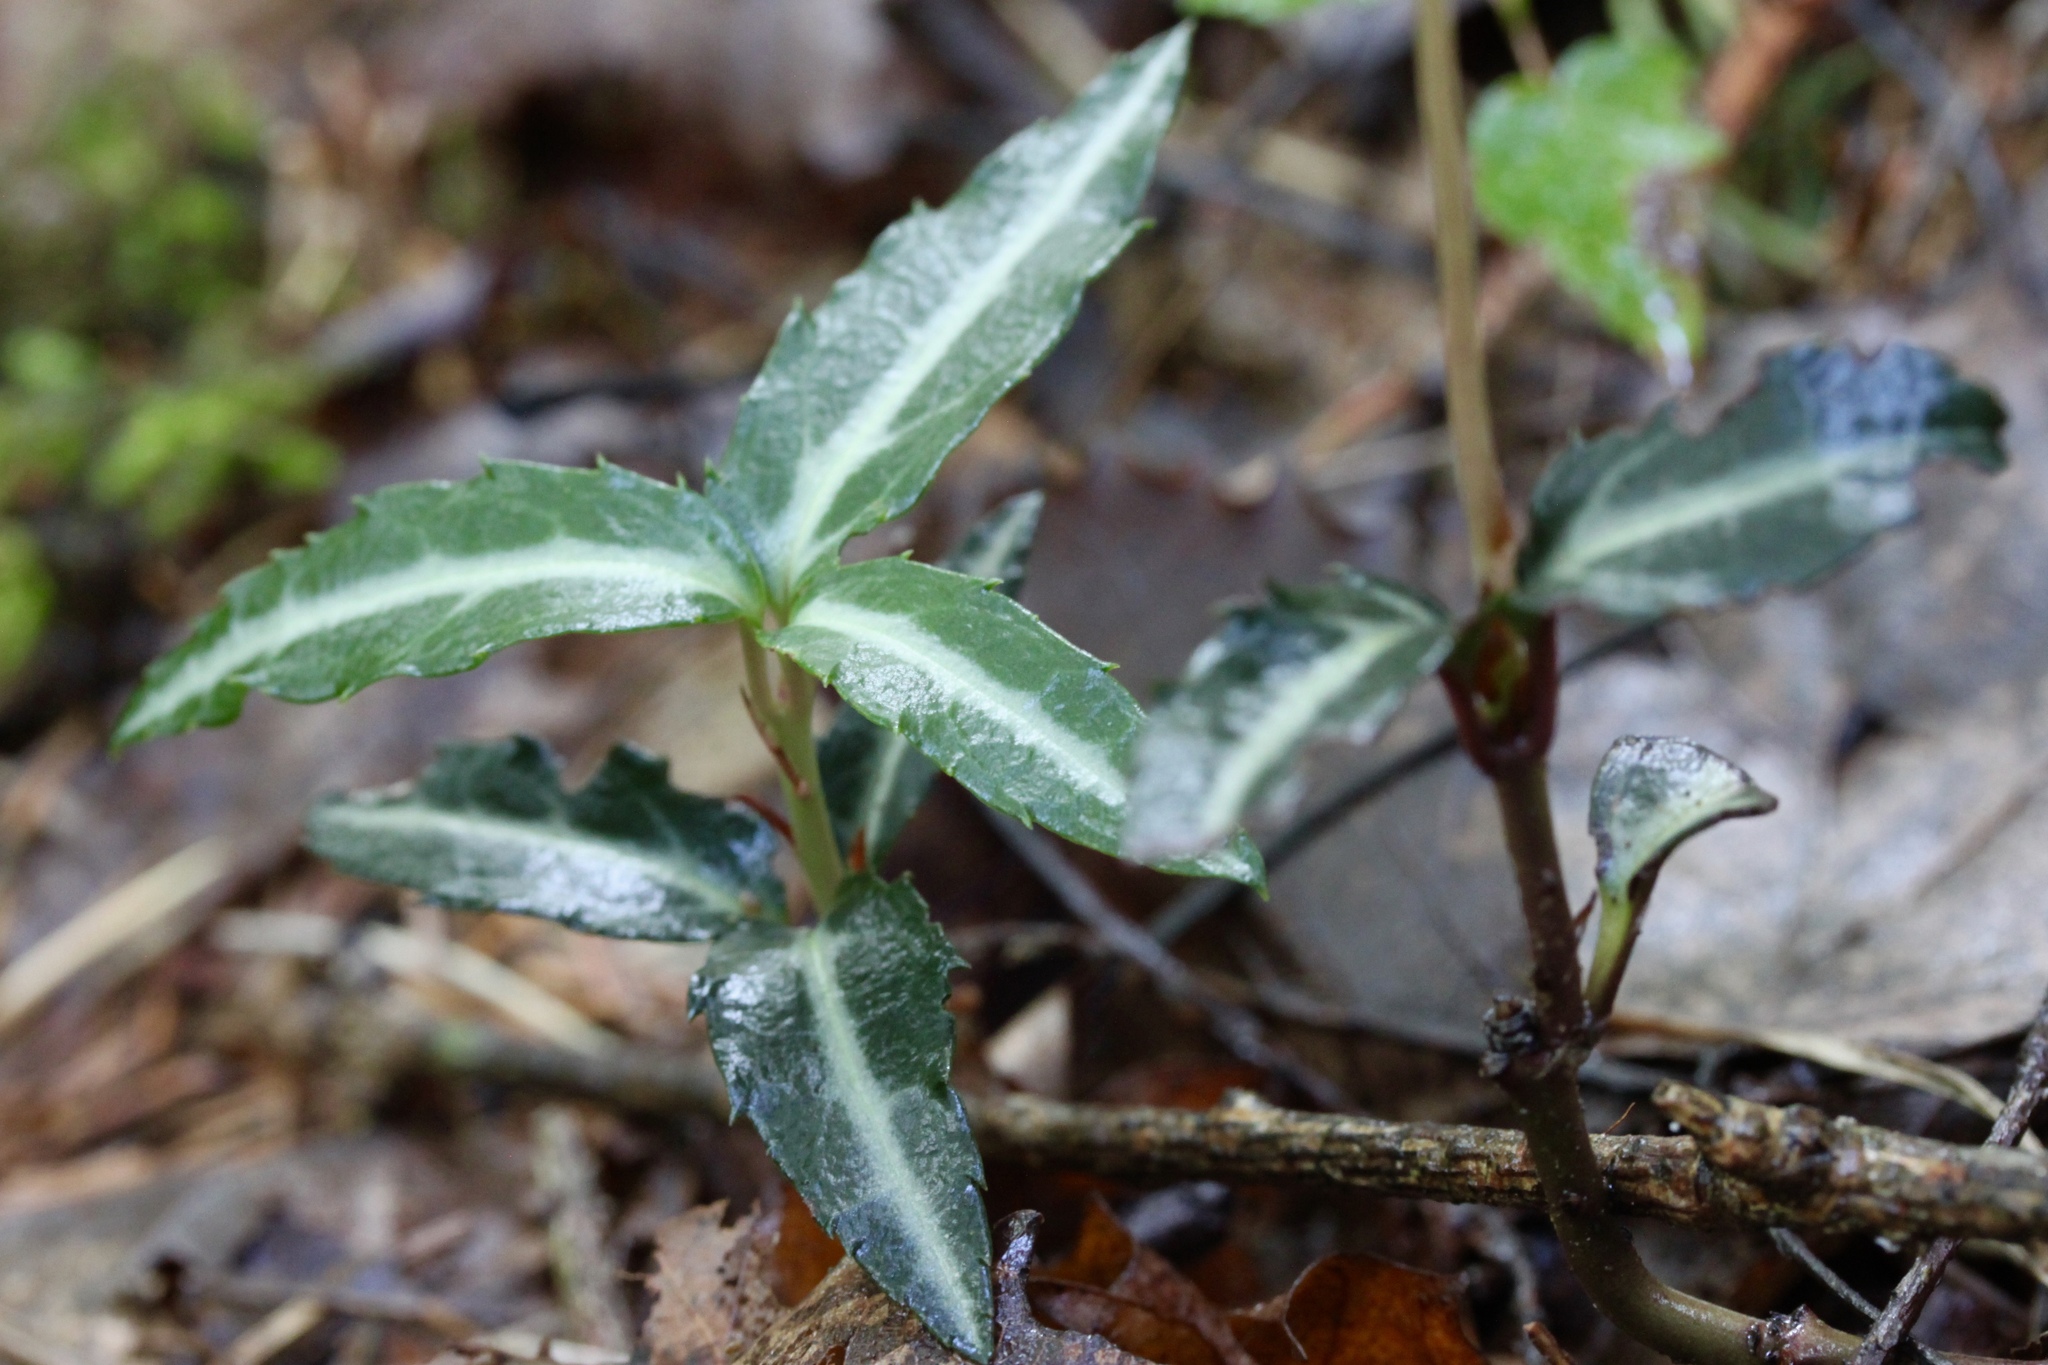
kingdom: Plantae
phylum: Tracheophyta
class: Magnoliopsida
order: Ericales
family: Ericaceae
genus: Chimaphila
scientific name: Chimaphila maculata
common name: Spotted pipsissewa
